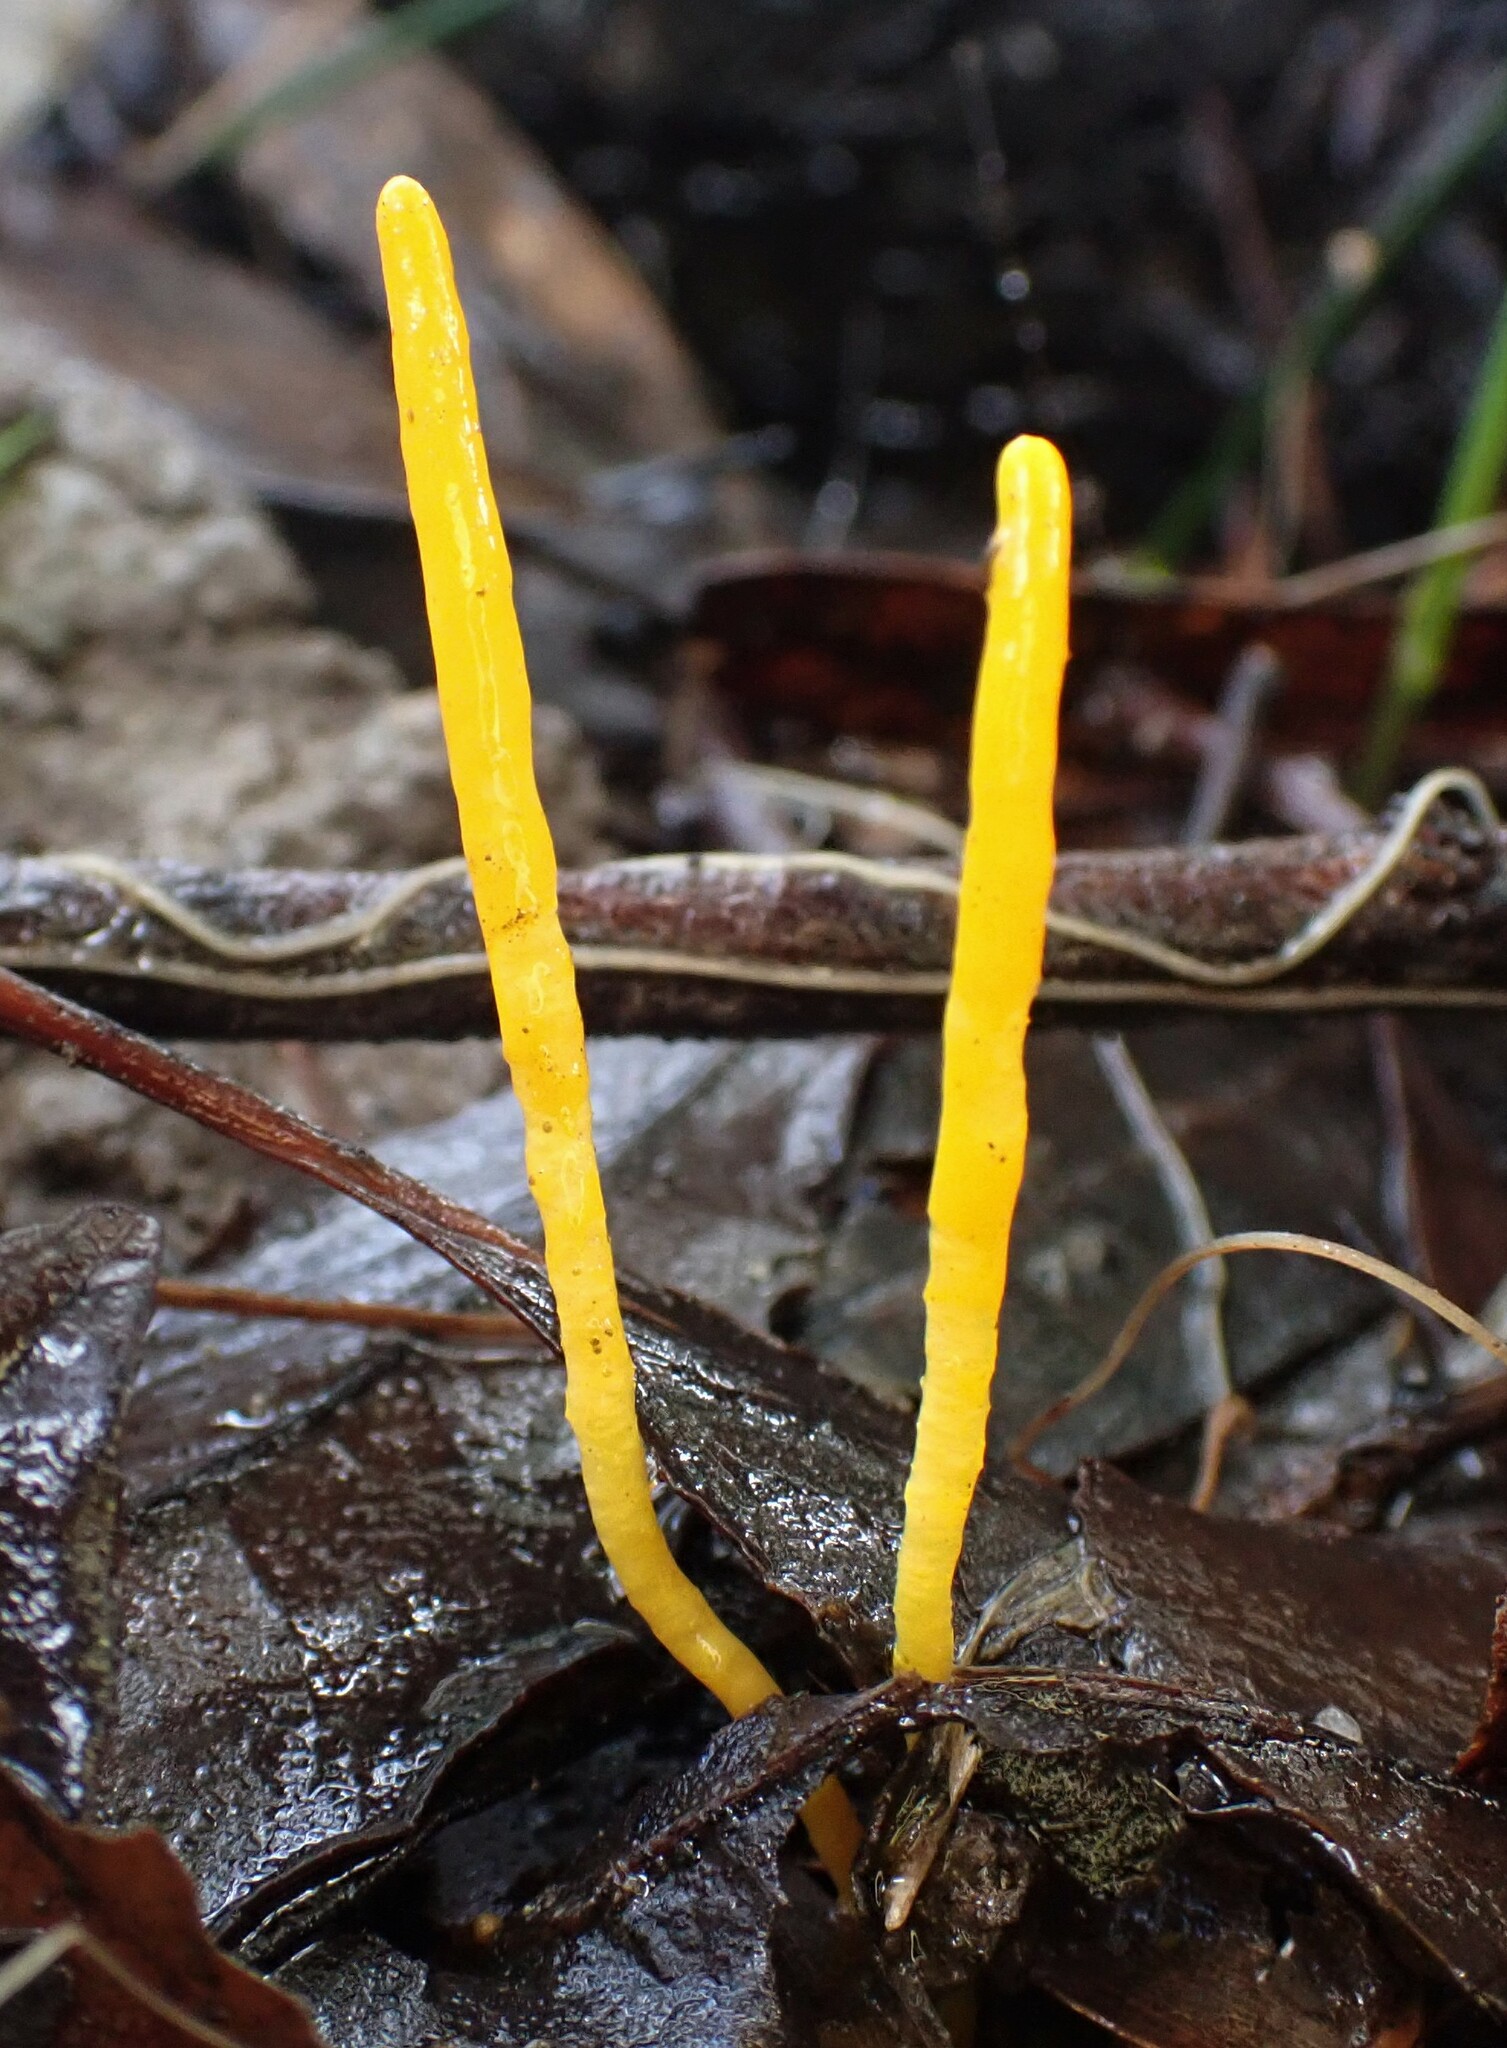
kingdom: Fungi
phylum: Basidiomycota
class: Agaricomycetes
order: Agaricales
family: Clavariaceae
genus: Clavulinopsis
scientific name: Clavulinopsis amoena
